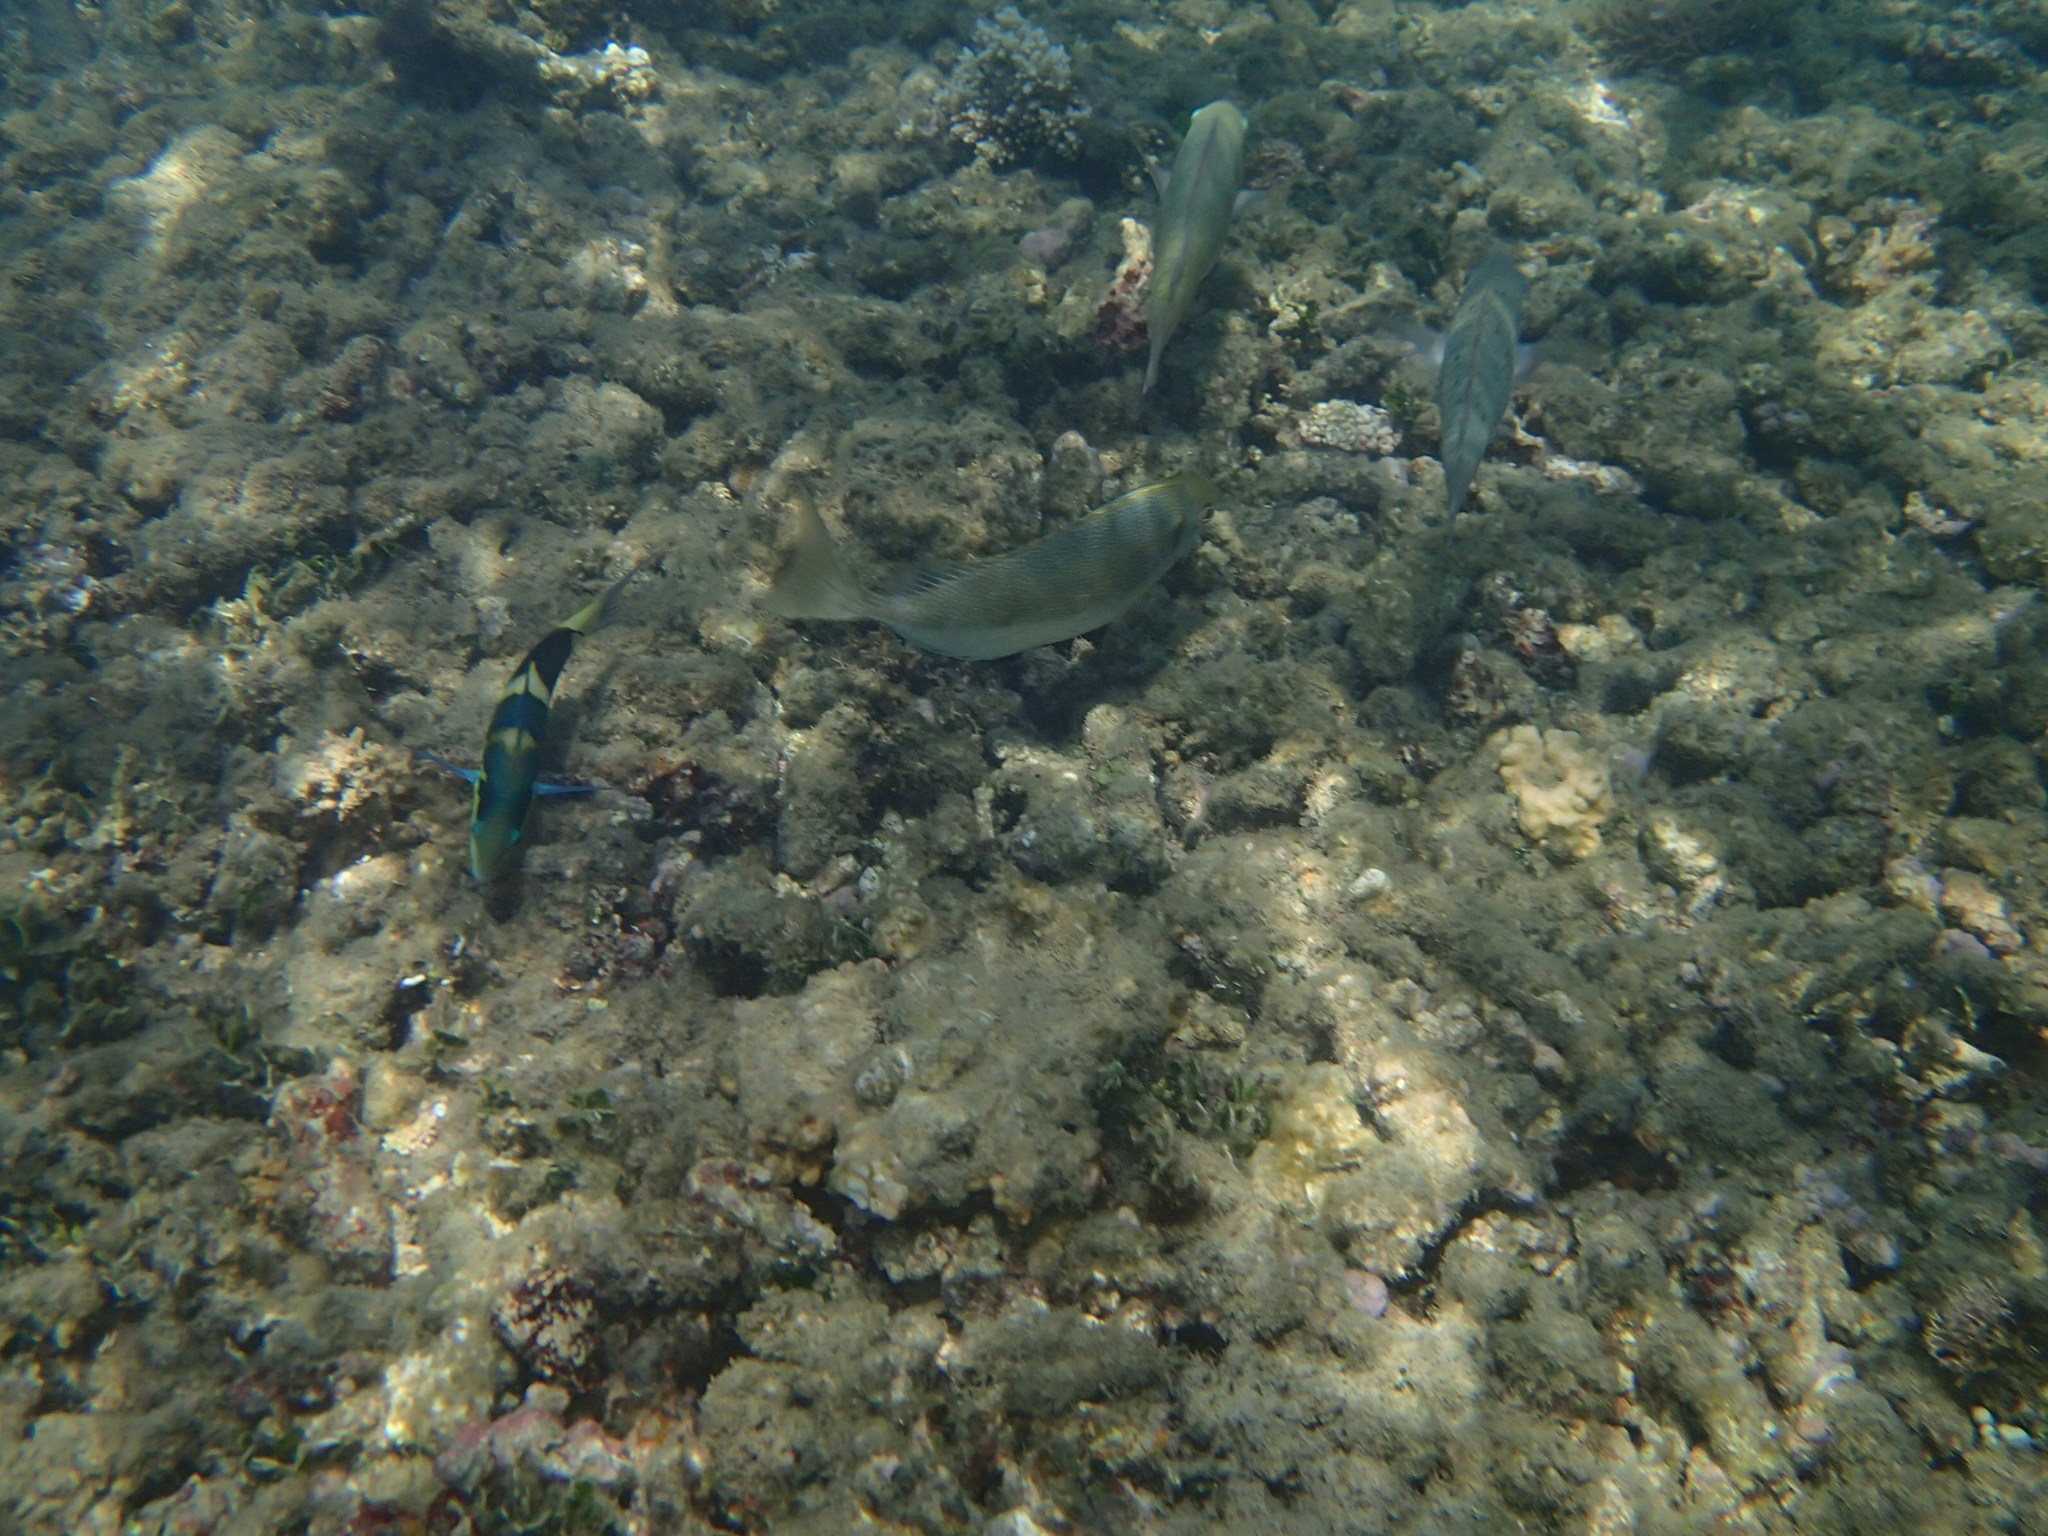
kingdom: Animalia
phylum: Chordata
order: Perciformes
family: Labridae
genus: Thalassoma
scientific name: Thalassoma nigrofasciatum
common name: Black-barred wrasse
